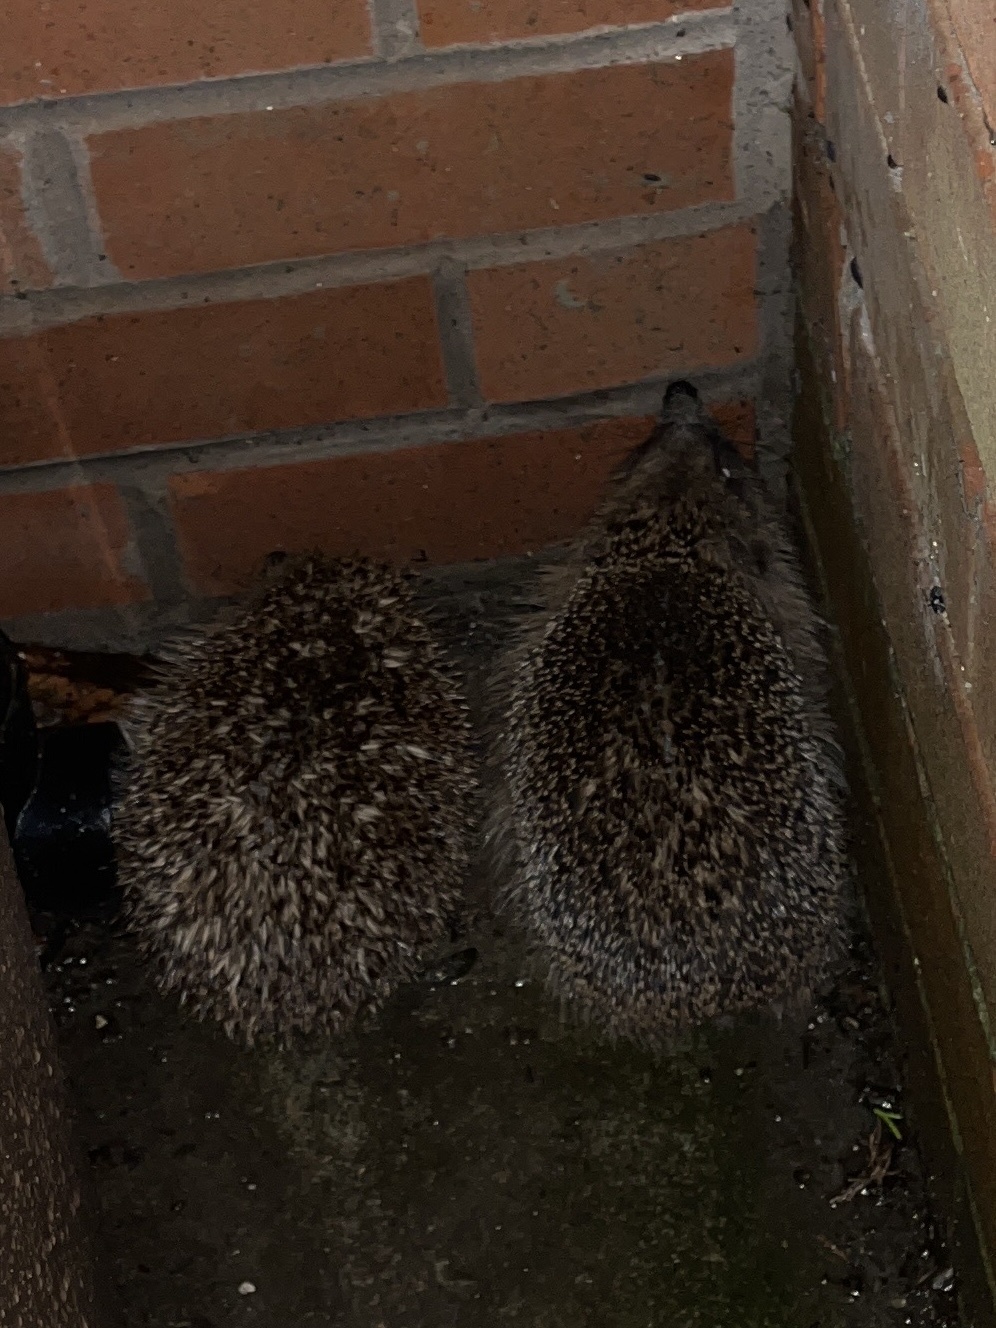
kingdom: Animalia
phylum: Chordata
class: Mammalia
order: Erinaceomorpha
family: Erinaceidae
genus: Erinaceus
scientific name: Erinaceus europaeus
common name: West european hedgehog
